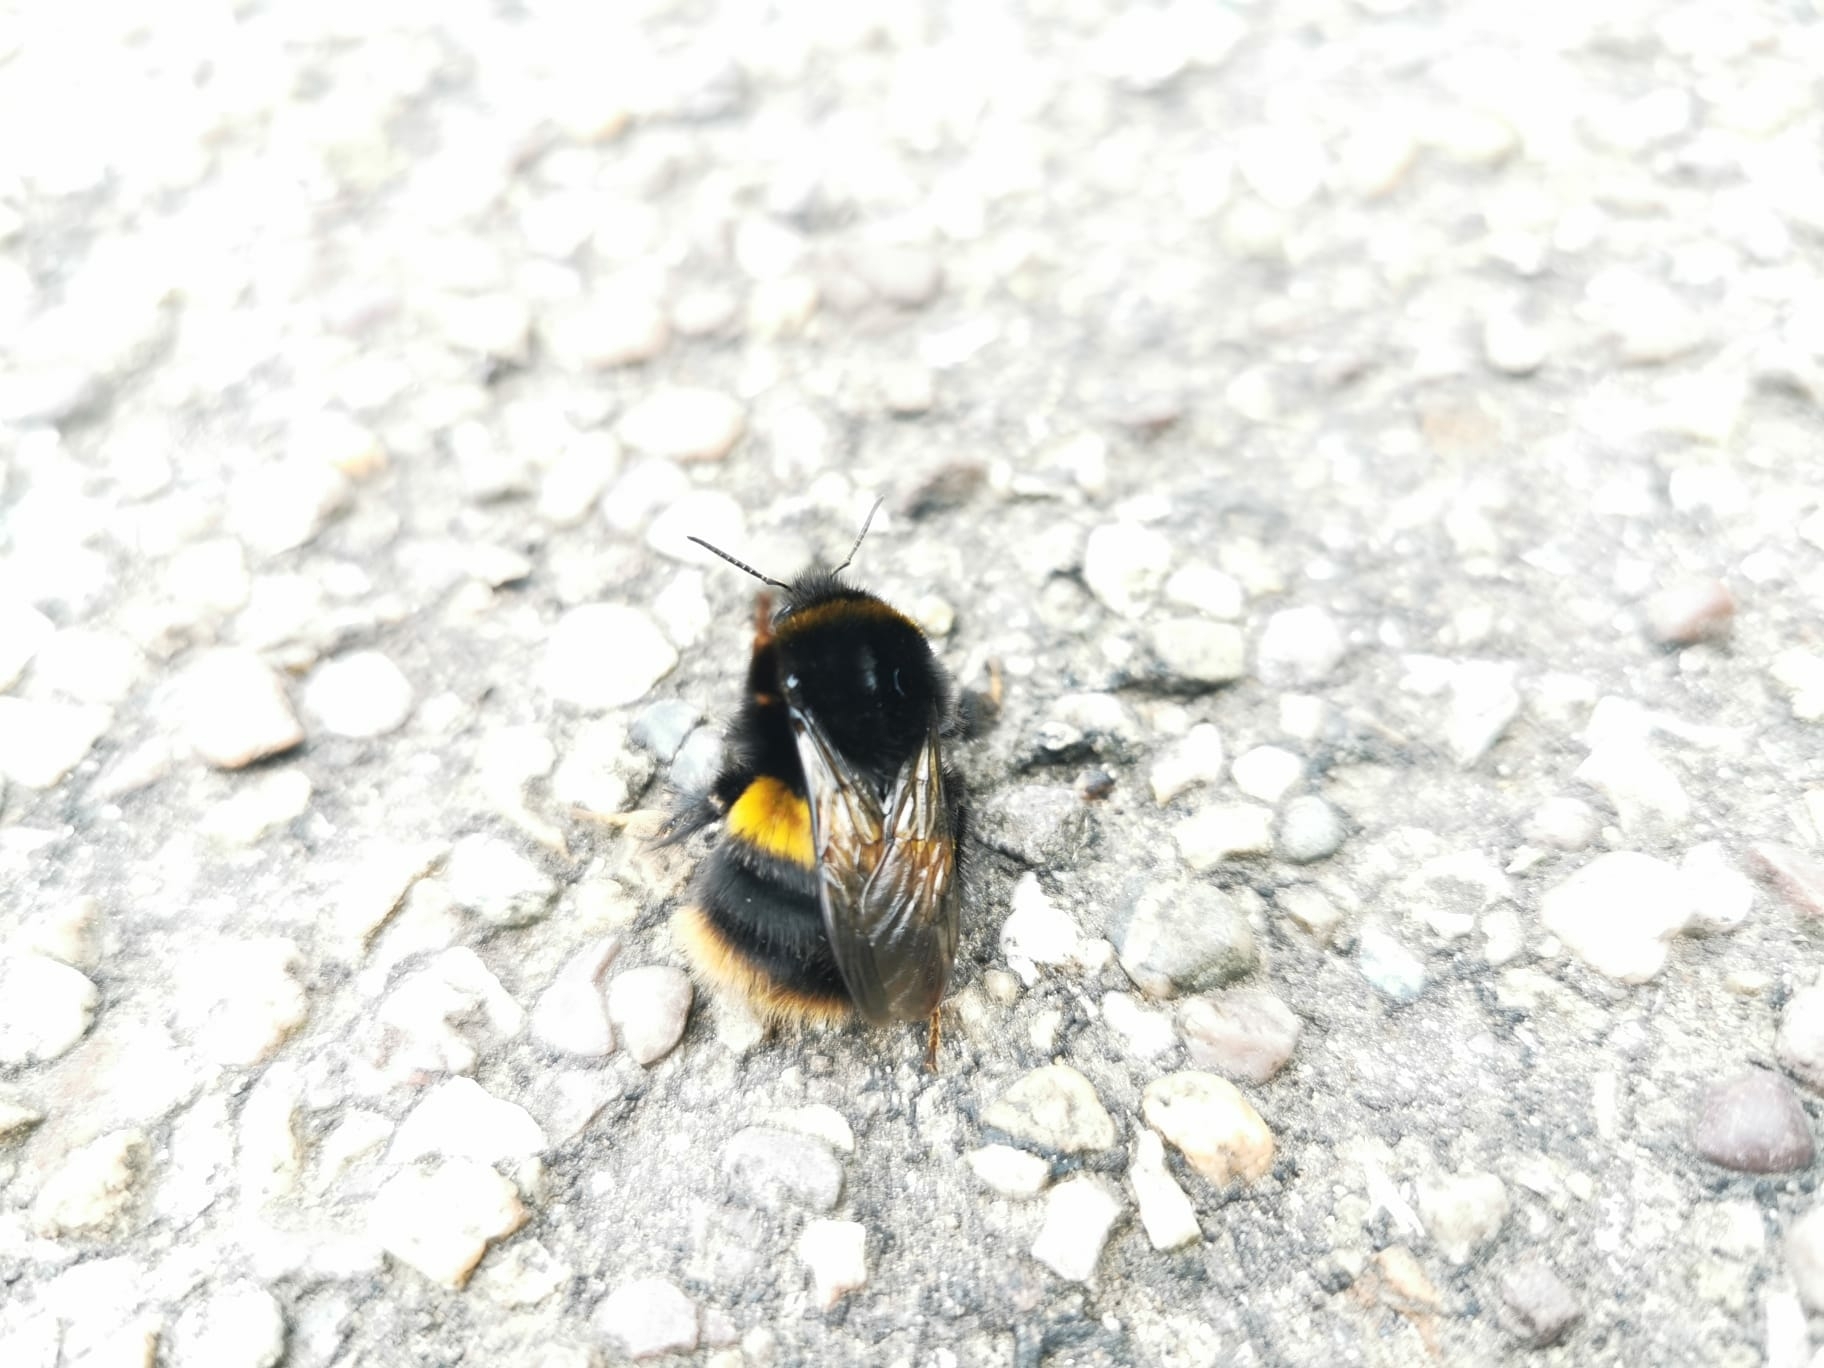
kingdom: Animalia
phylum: Arthropoda
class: Insecta
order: Hymenoptera
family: Apidae
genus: Bombus
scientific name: Bombus terrestris
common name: Buff-tailed bumblebee
